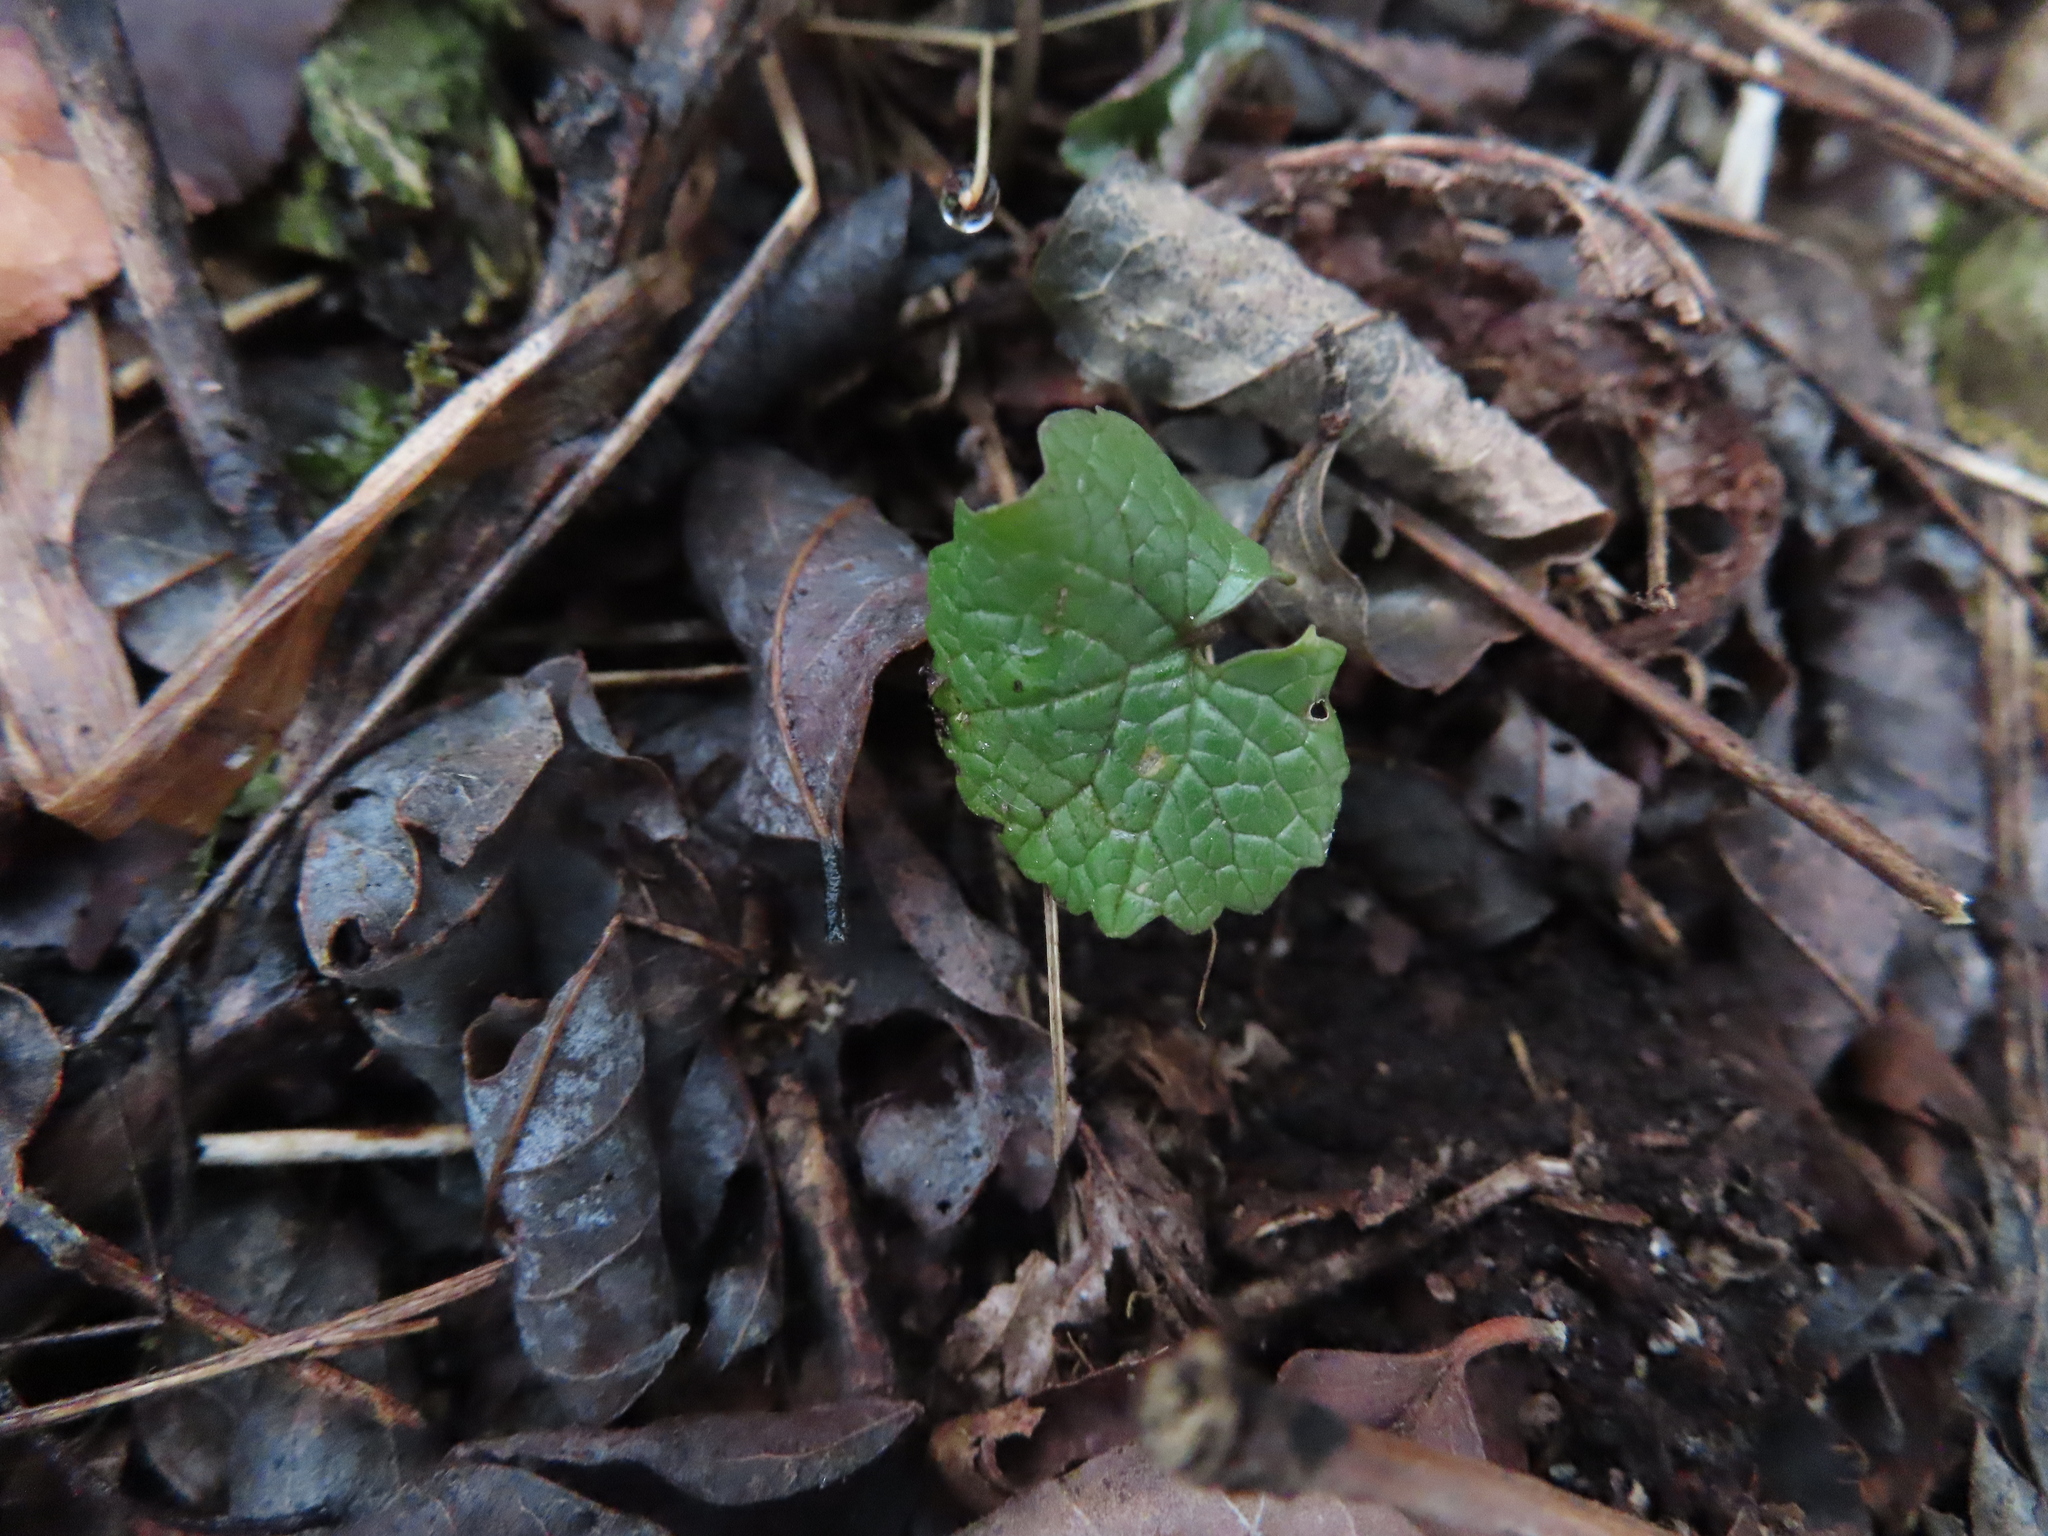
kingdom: Plantae
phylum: Tracheophyta
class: Magnoliopsida
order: Brassicales
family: Brassicaceae
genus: Alliaria
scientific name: Alliaria petiolata
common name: Garlic mustard
